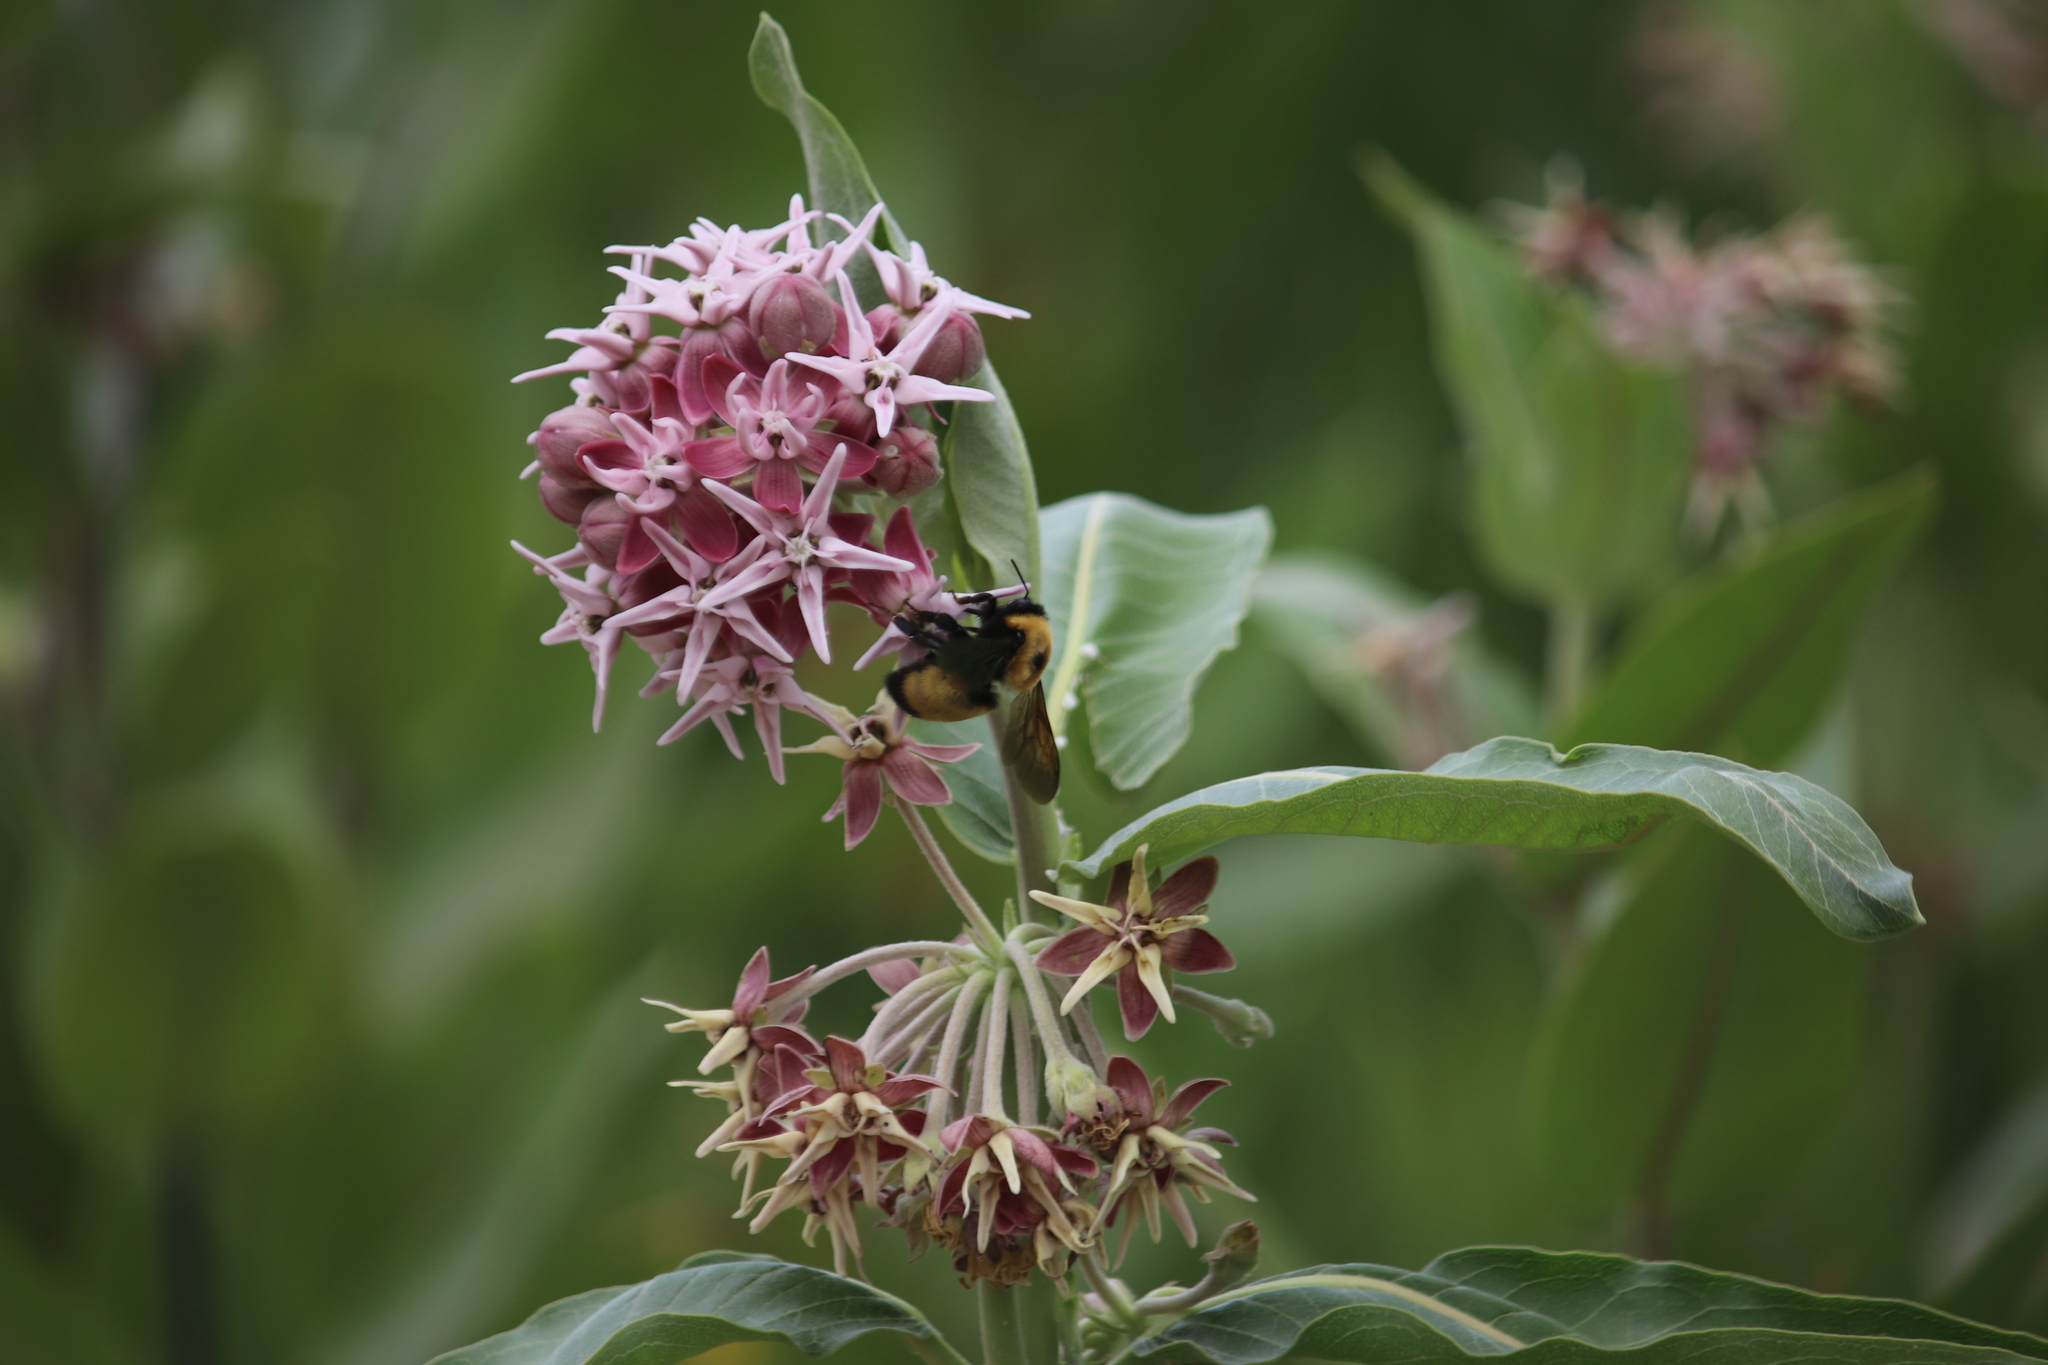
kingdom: Animalia
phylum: Arthropoda
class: Insecta
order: Hymenoptera
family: Apidae
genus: Bombus
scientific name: Bombus nevadensis
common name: Nevada bumble bee
